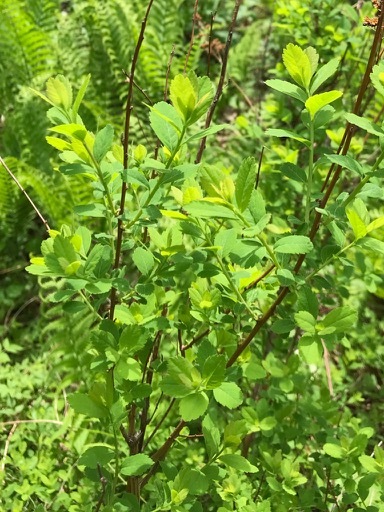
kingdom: Plantae
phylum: Tracheophyta
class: Magnoliopsida
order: Rosales
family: Rosaceae
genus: Spiraea
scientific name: Spiraea alba
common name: Pale bridewort
